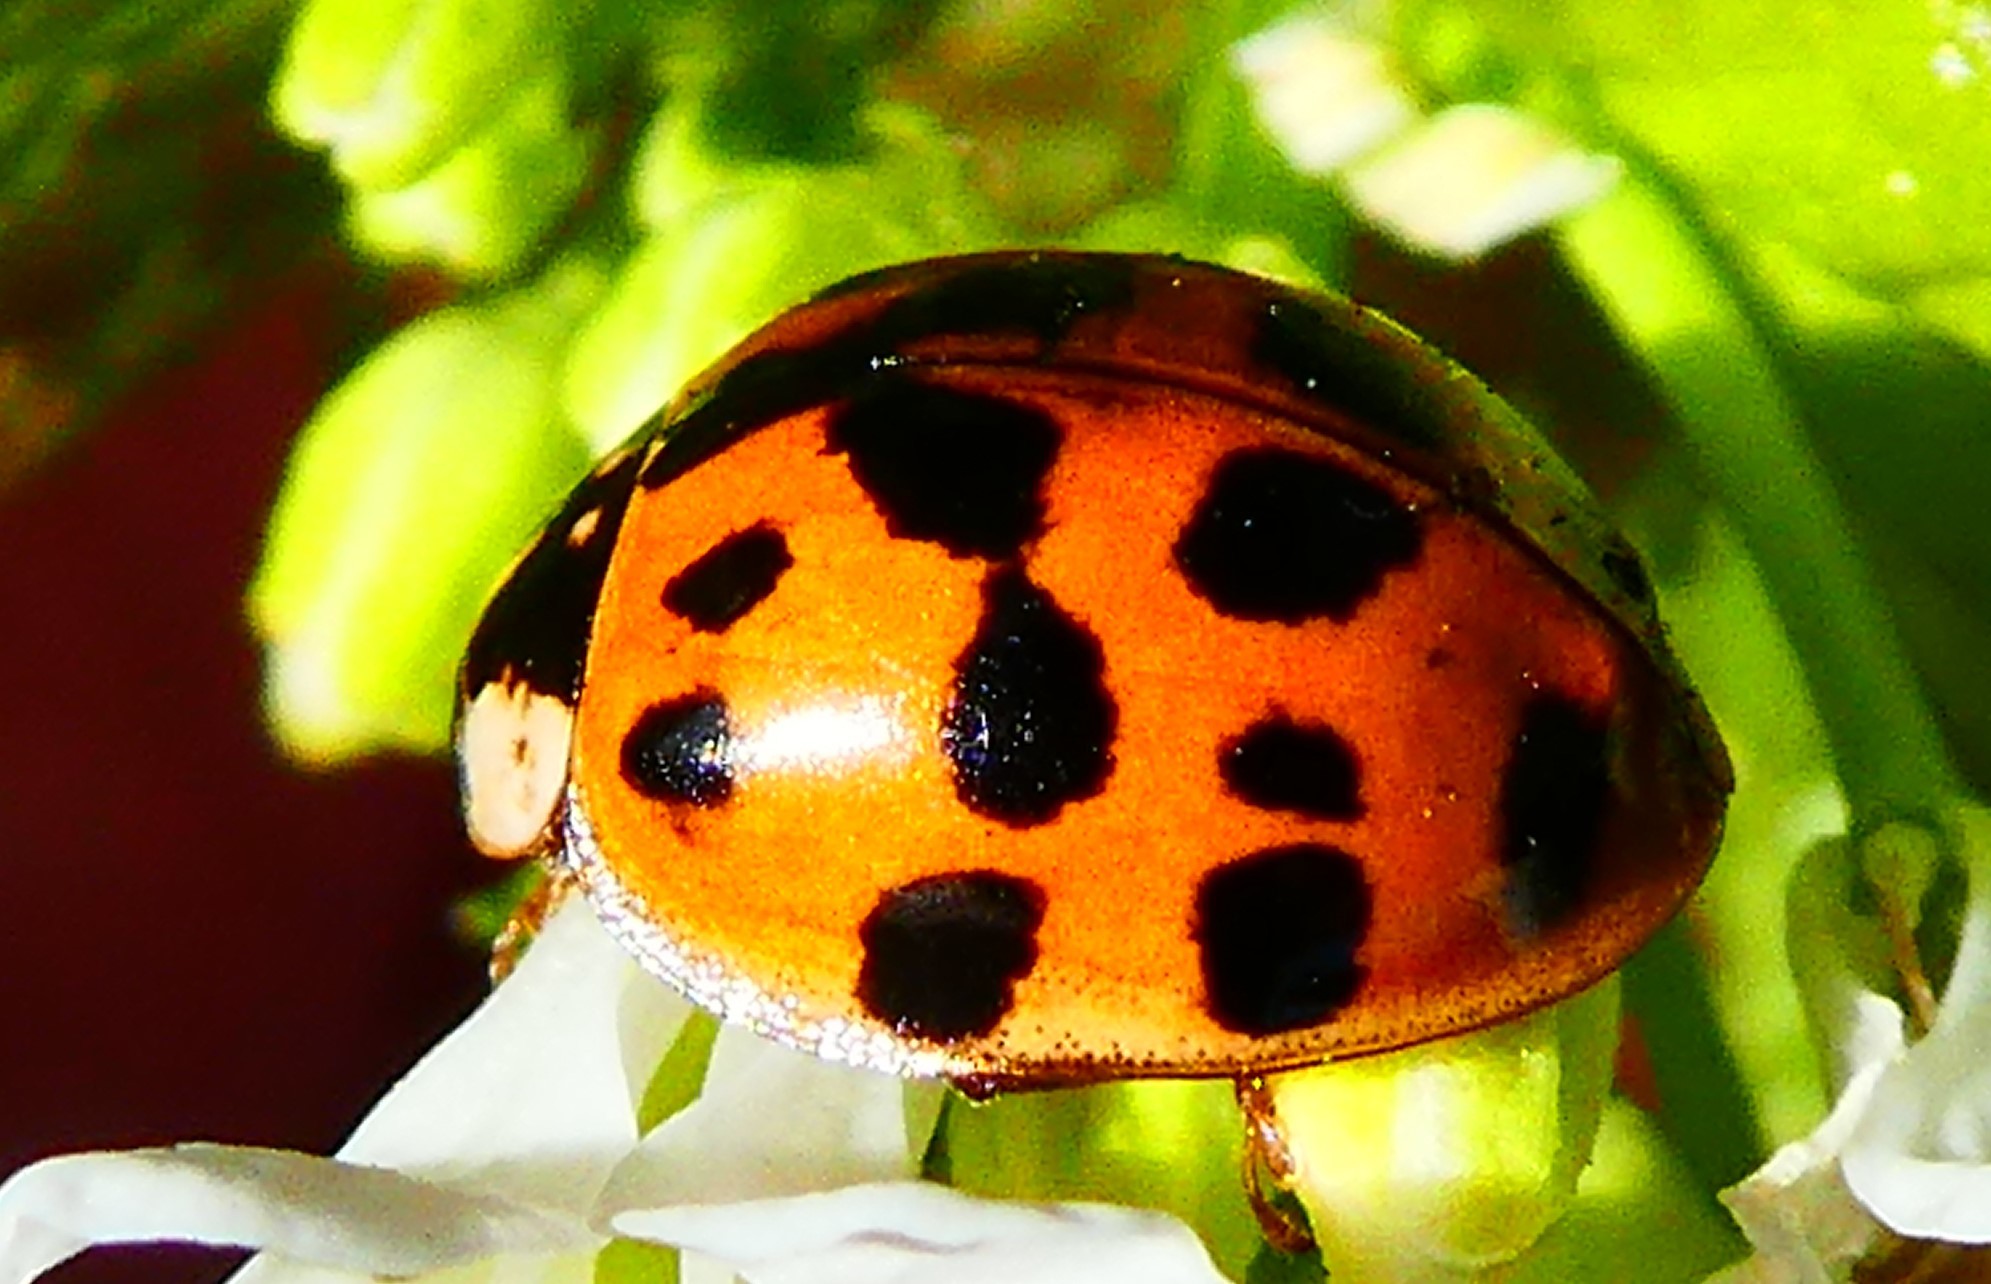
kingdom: Animalia
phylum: Arthropoda
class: Insecta
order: Coleoptera
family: Coccinellidae
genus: Harmonia
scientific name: Harmonia axyridis
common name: Harlequin ladybird
